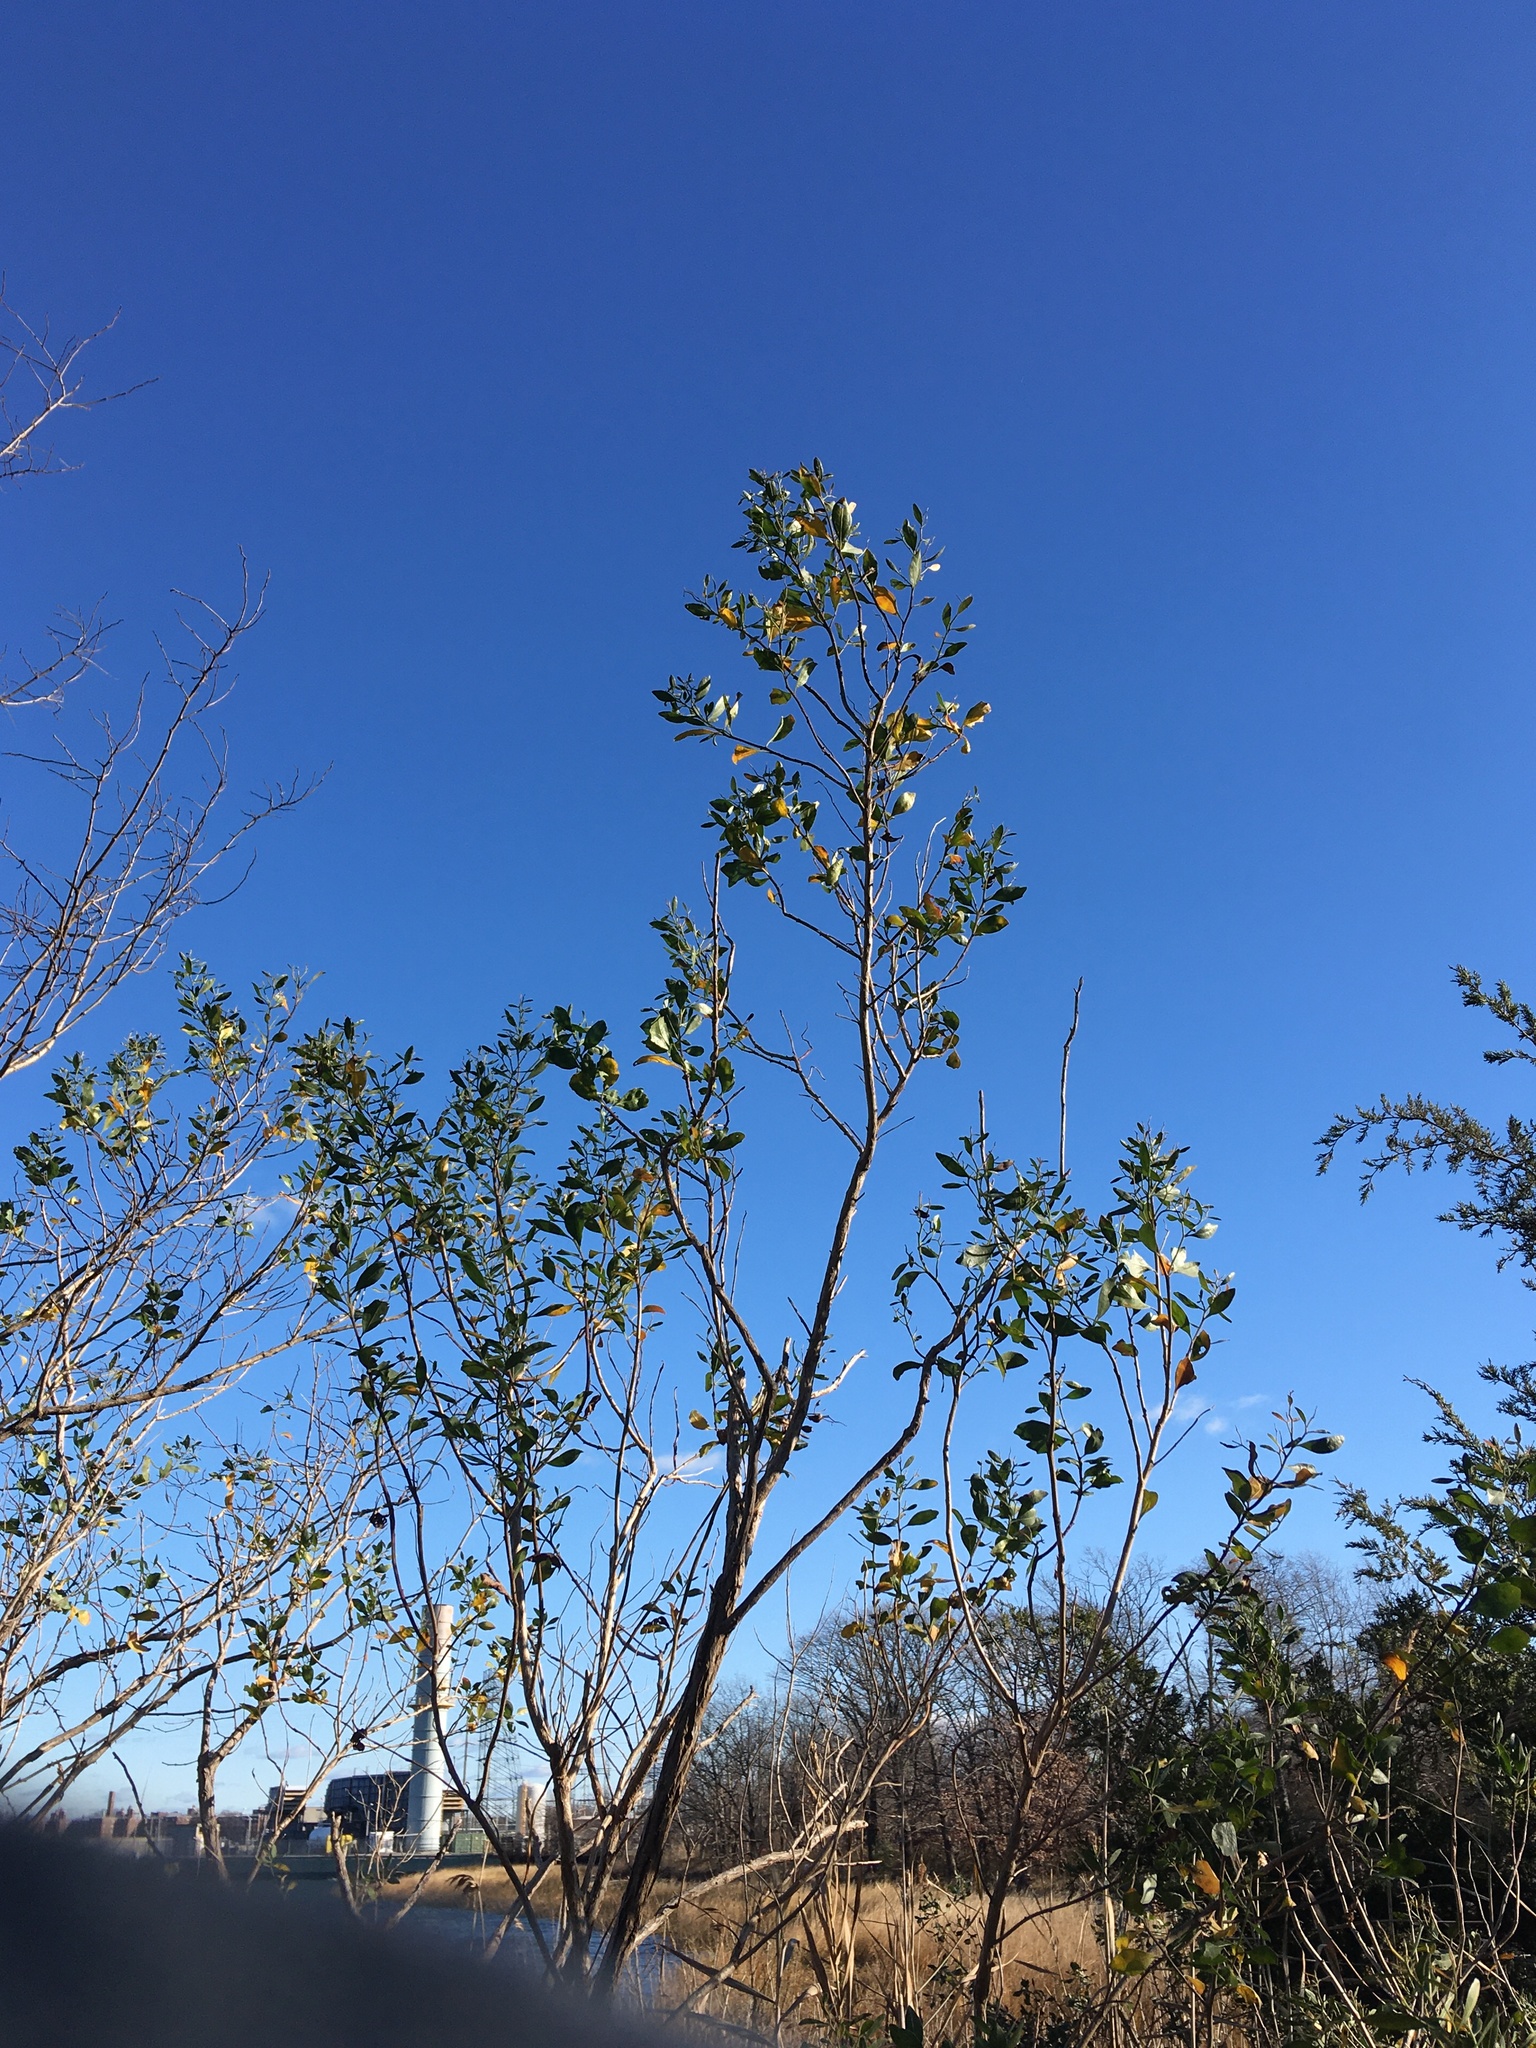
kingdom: Plantae
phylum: Tracheophyta
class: Magnoliopsida
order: Asterales
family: Asteraceae
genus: Baccharis
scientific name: Baccharis halimifolia
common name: Eastern baccharis
